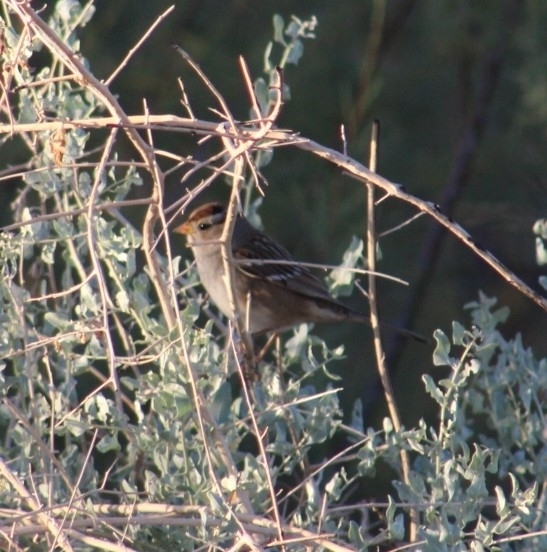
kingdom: Animalia
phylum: Chordata
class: Aves
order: Passeriformes
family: Passerellidae
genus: Zonotrichia
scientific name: Zonotrichia leucophrys
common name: White-crowned sparrow
